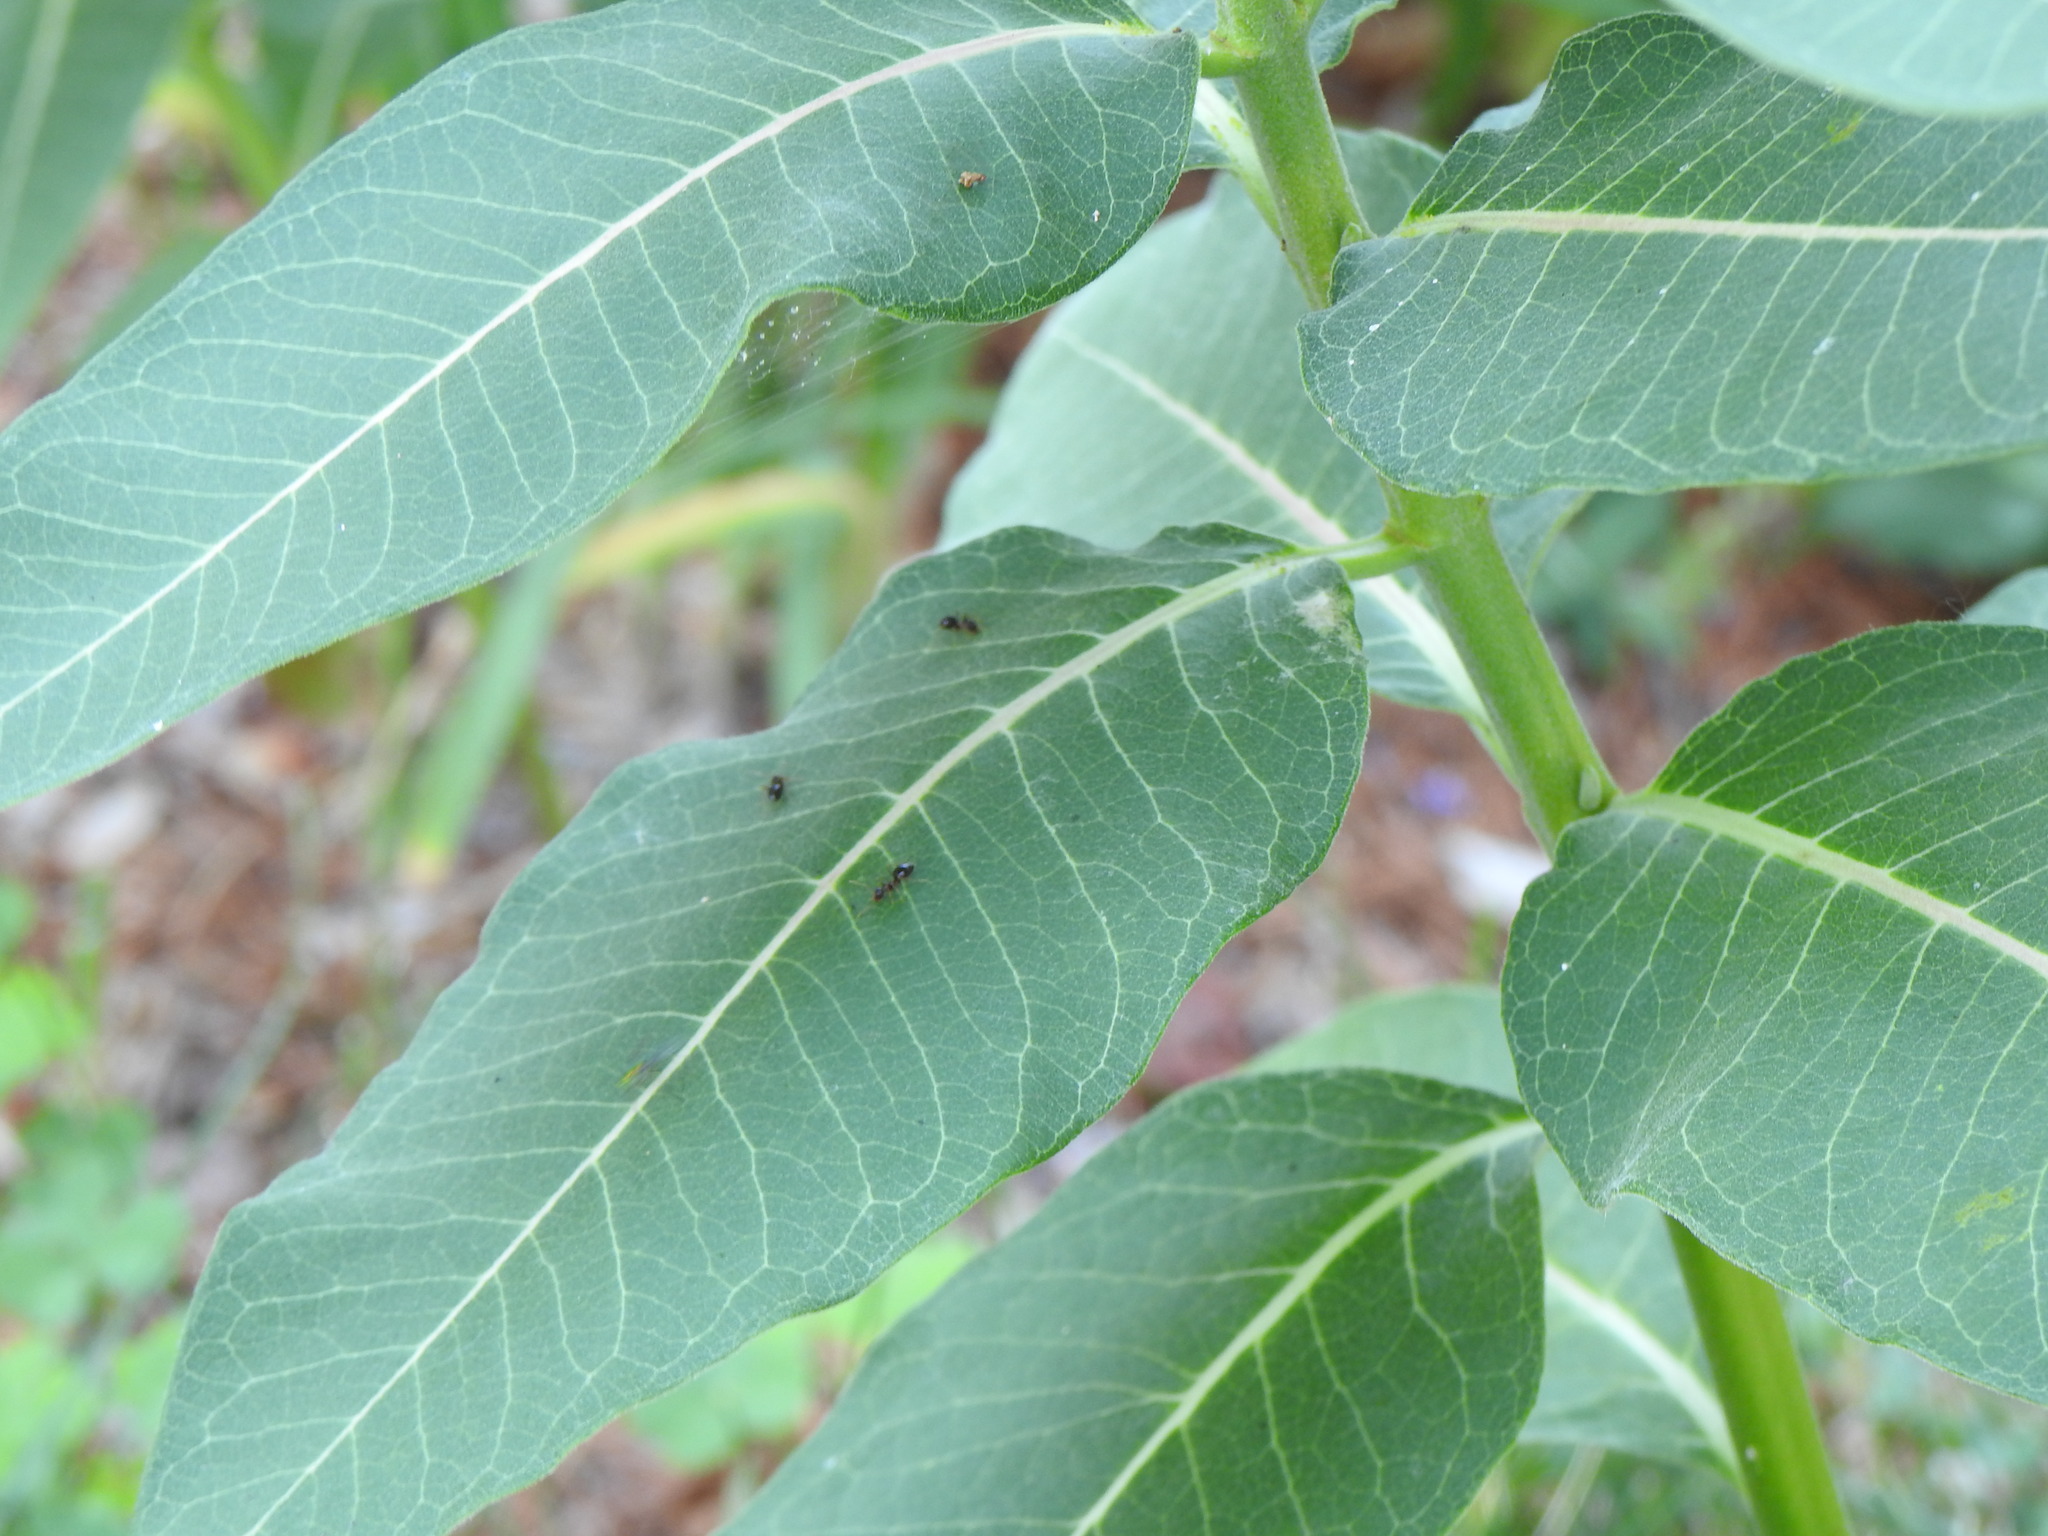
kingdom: Animalia
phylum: Arthropoda
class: Insecta
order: Hymenoptera
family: Formicidae
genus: Prenolepis
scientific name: Prenolepis imparis
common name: Small honey ant
